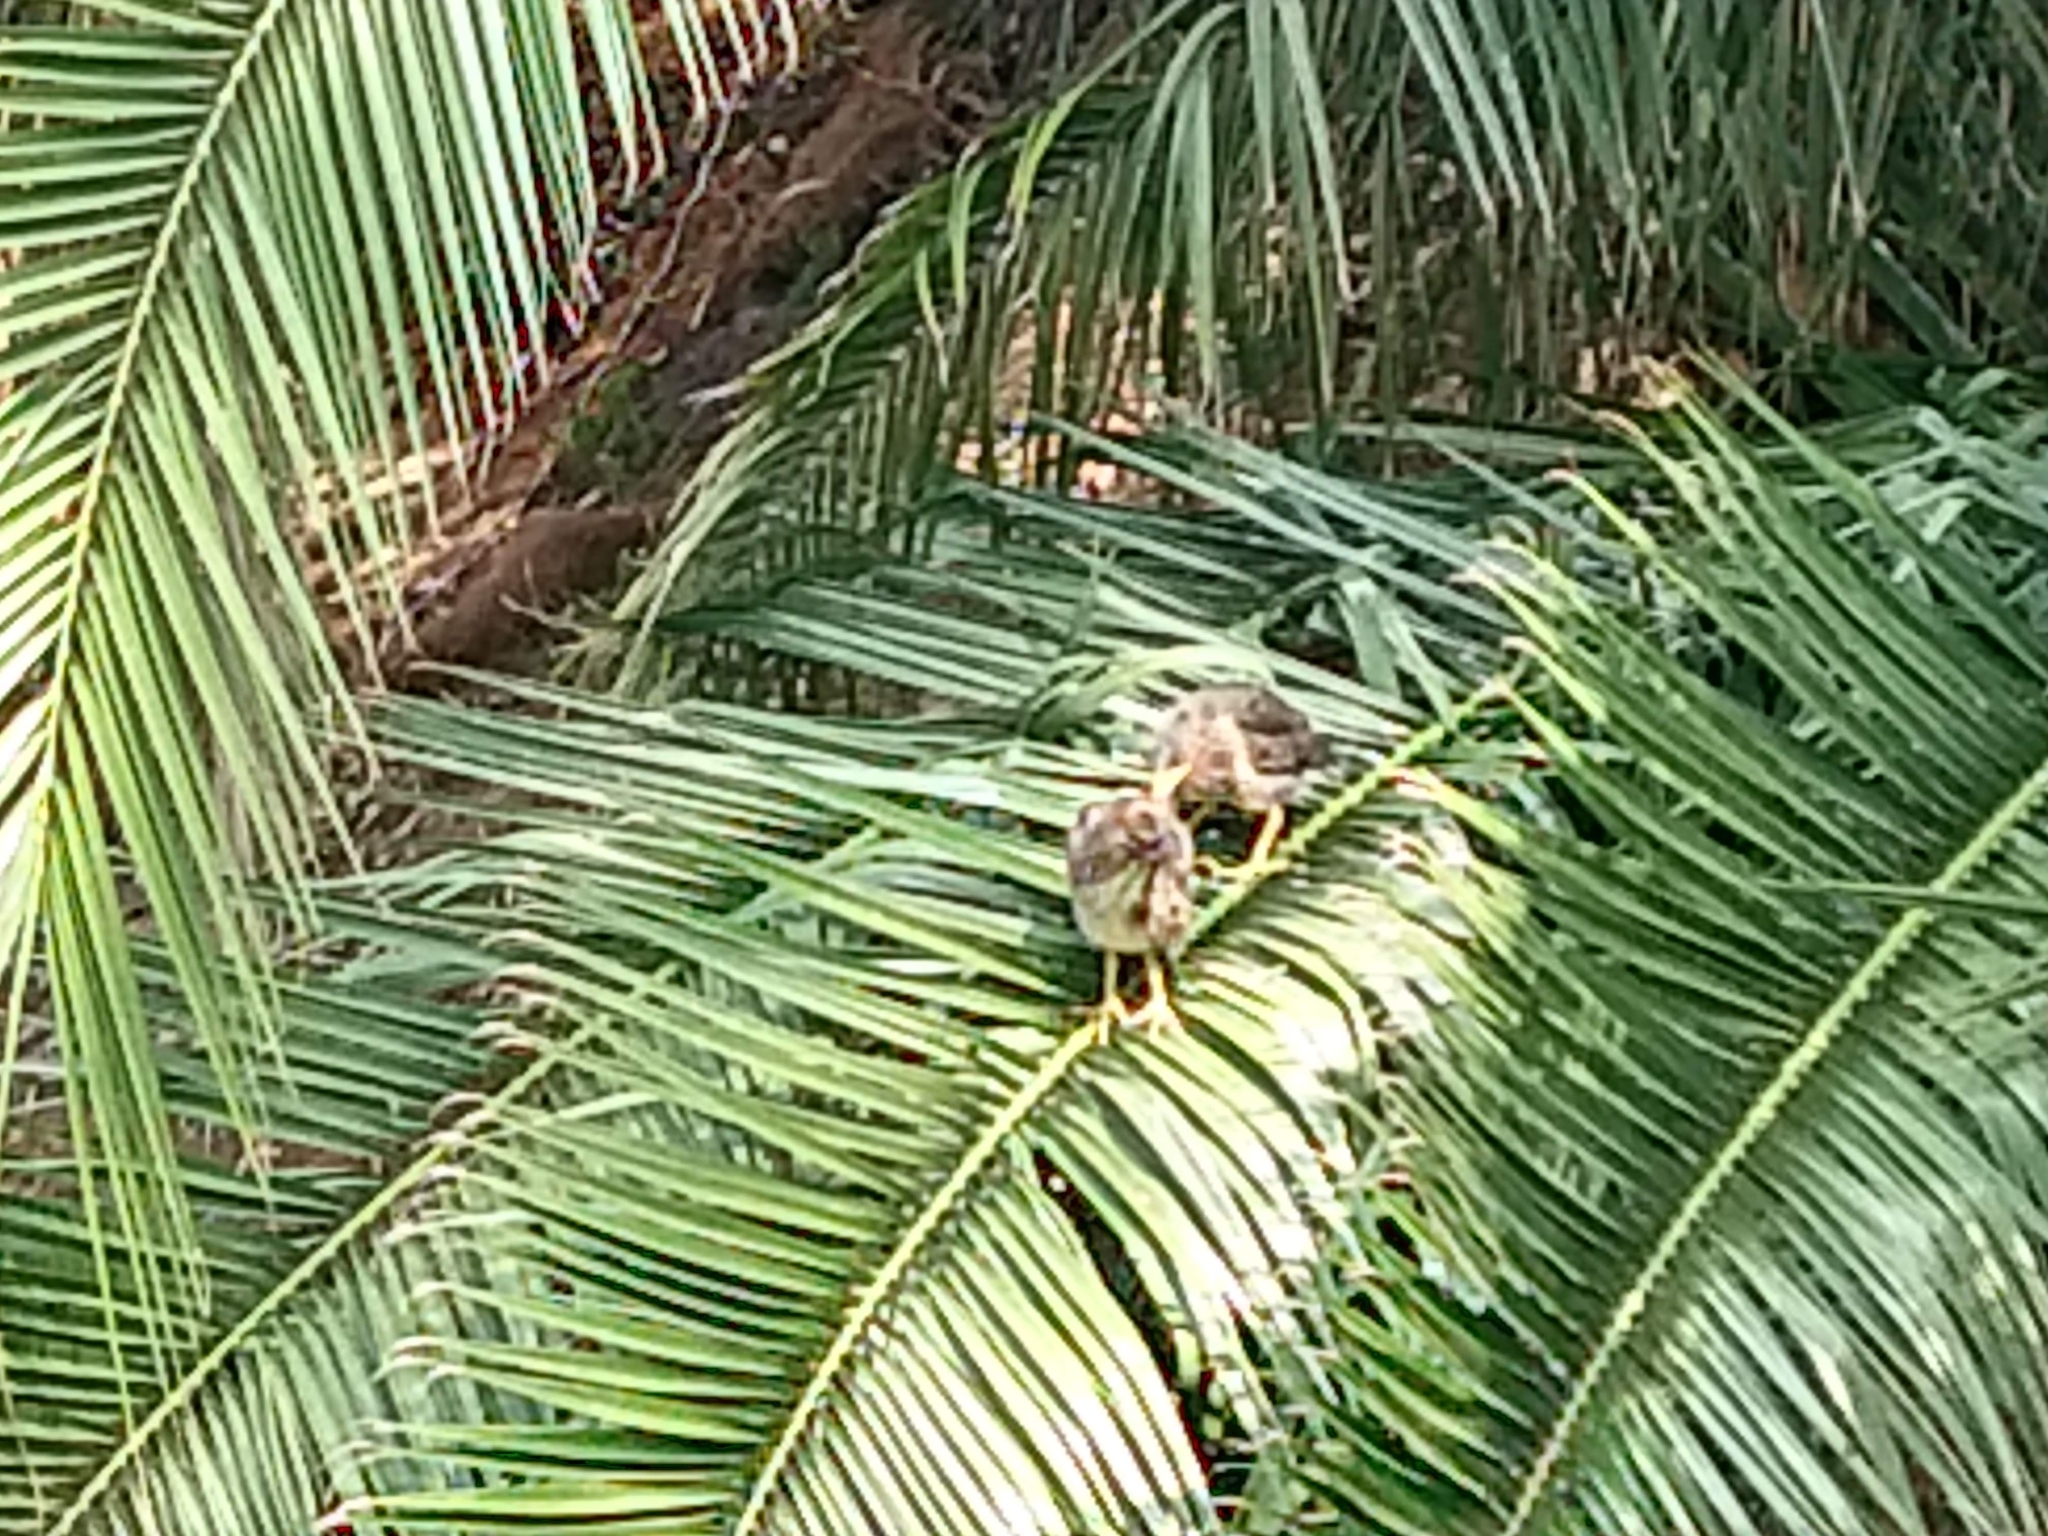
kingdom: Animalia
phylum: Chordata
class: Aves
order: Pelecaniformes
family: Ardeidae
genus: Butorides
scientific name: Butorides virescens
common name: Green heron
